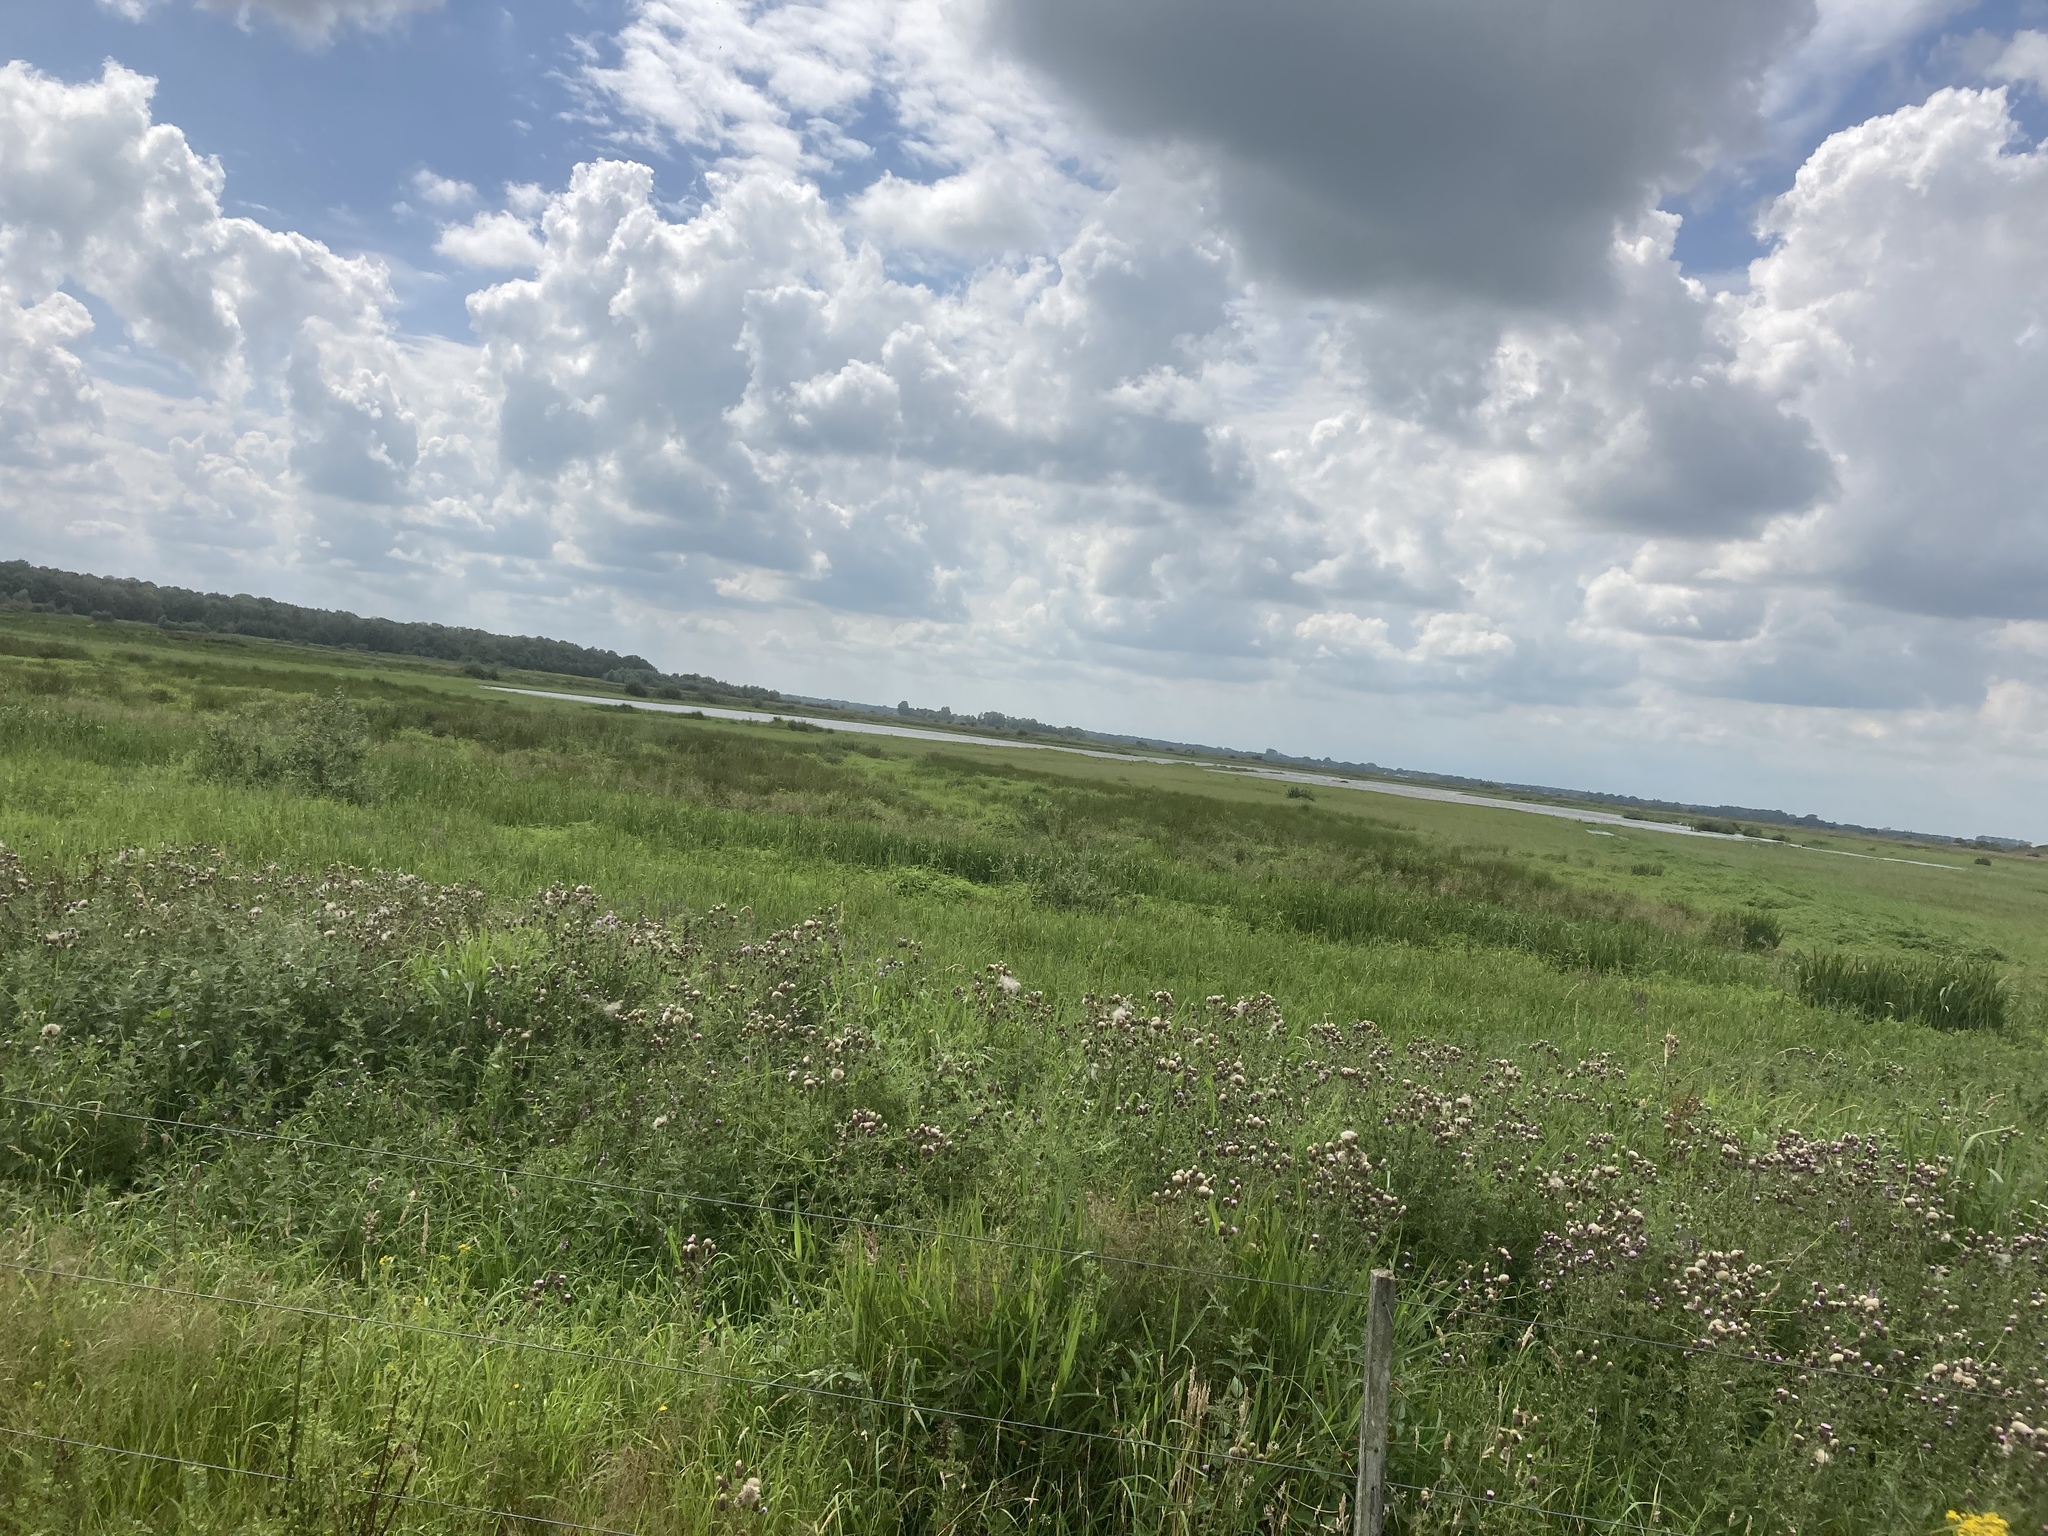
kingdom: Plantae
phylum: Tracheophyta
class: Magnoliopsida
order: Asterales
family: Asteraceae
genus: Cirsium
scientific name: Cirsium arvense
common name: Creeping thistle
